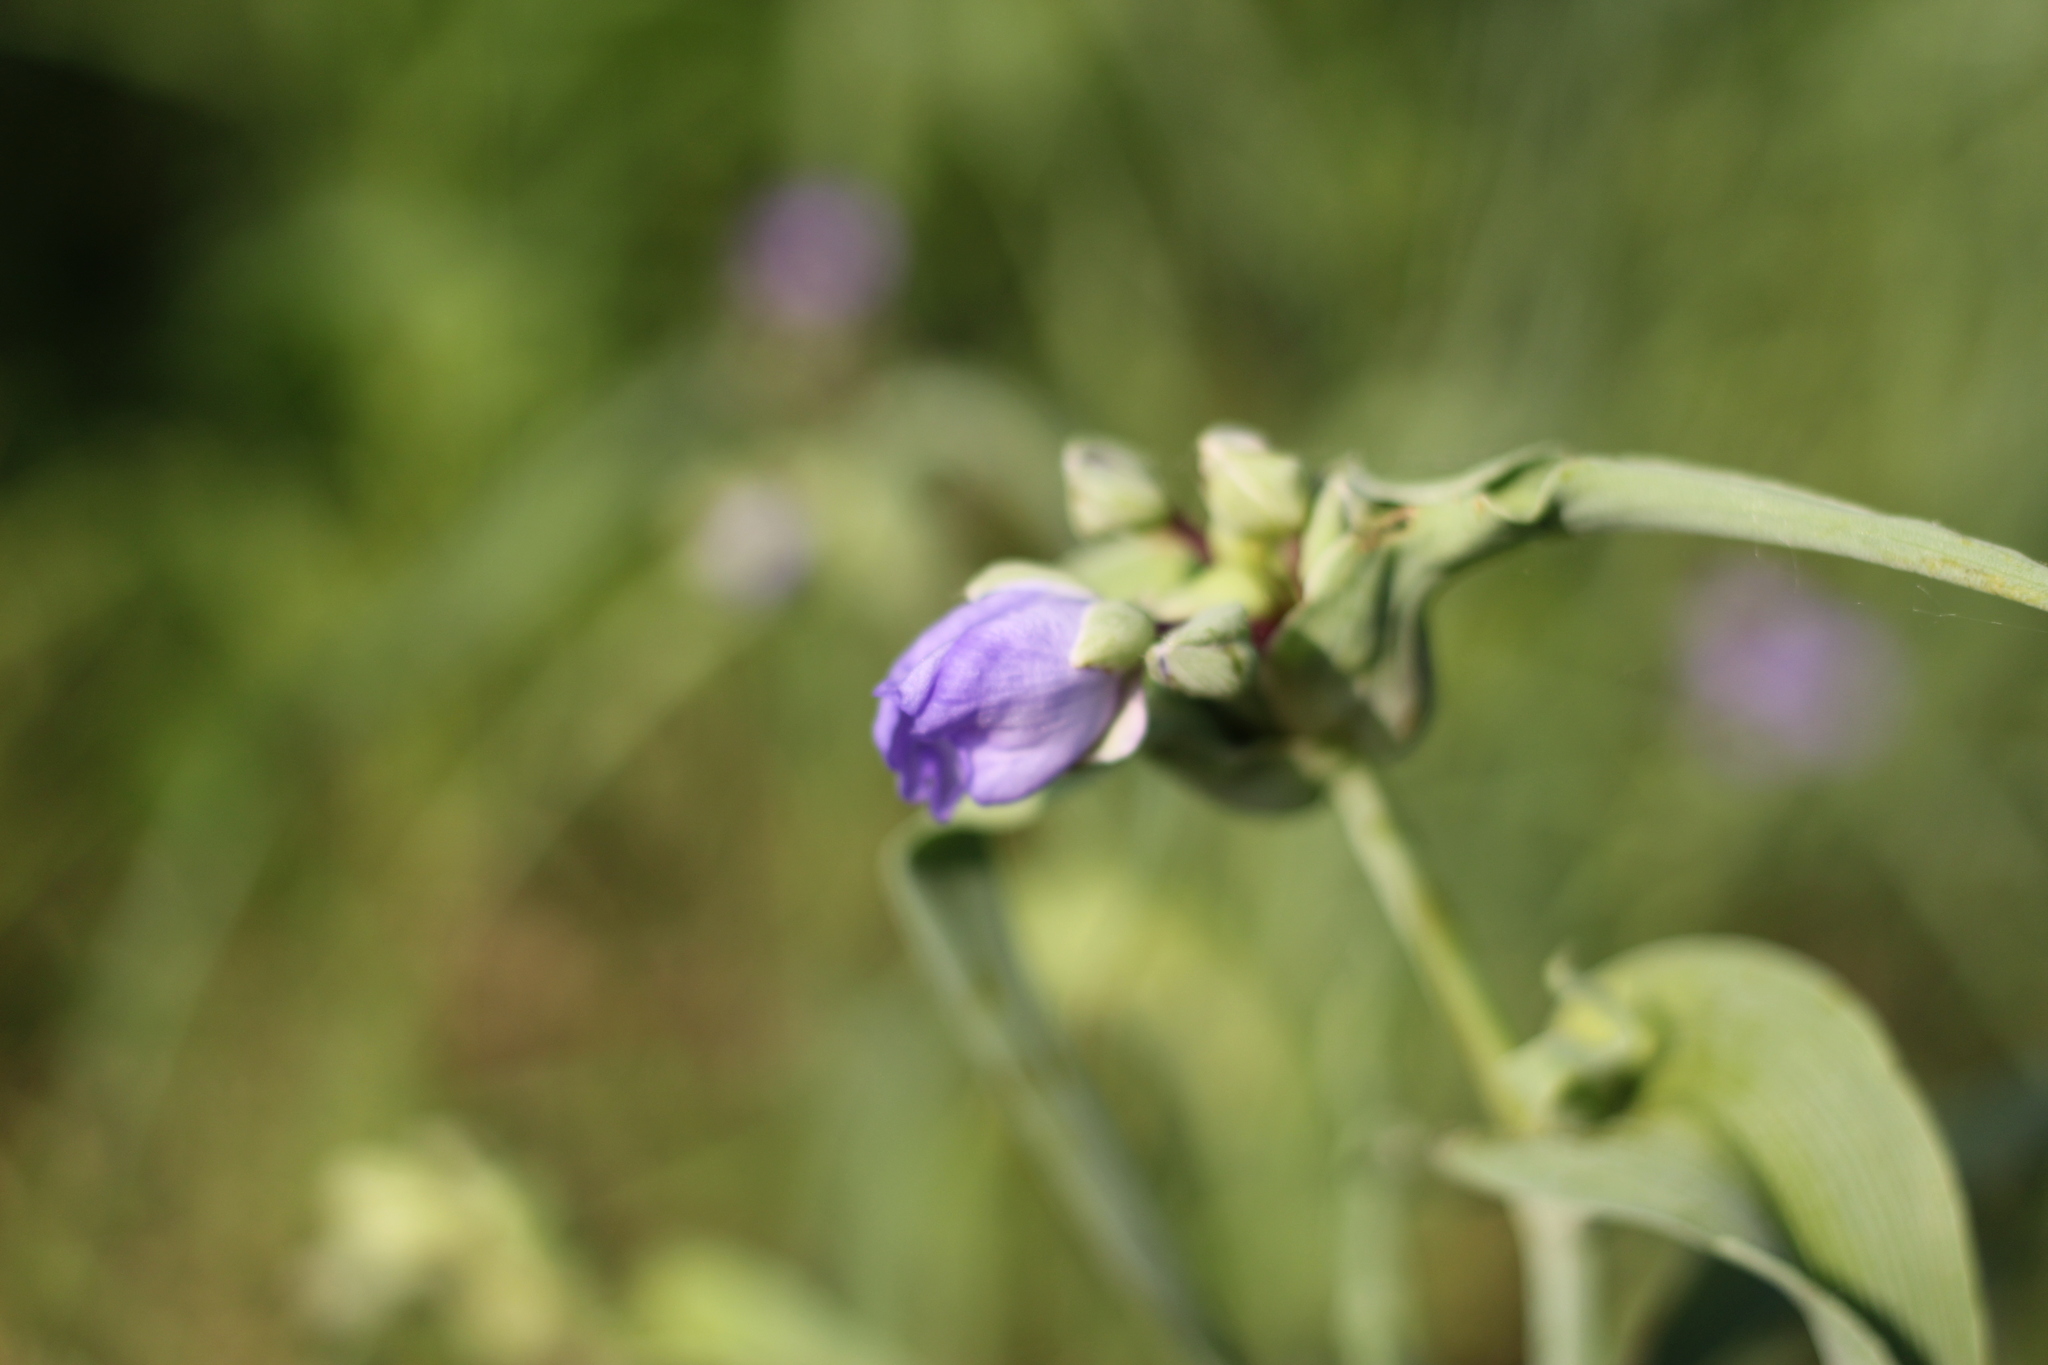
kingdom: Plantae
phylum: Tracheophyta
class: Liliopsida
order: Commelinales
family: Commelinaceae
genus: Tradescantia
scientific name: Tradescantia ohiensis
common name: Ohio spiderwort
